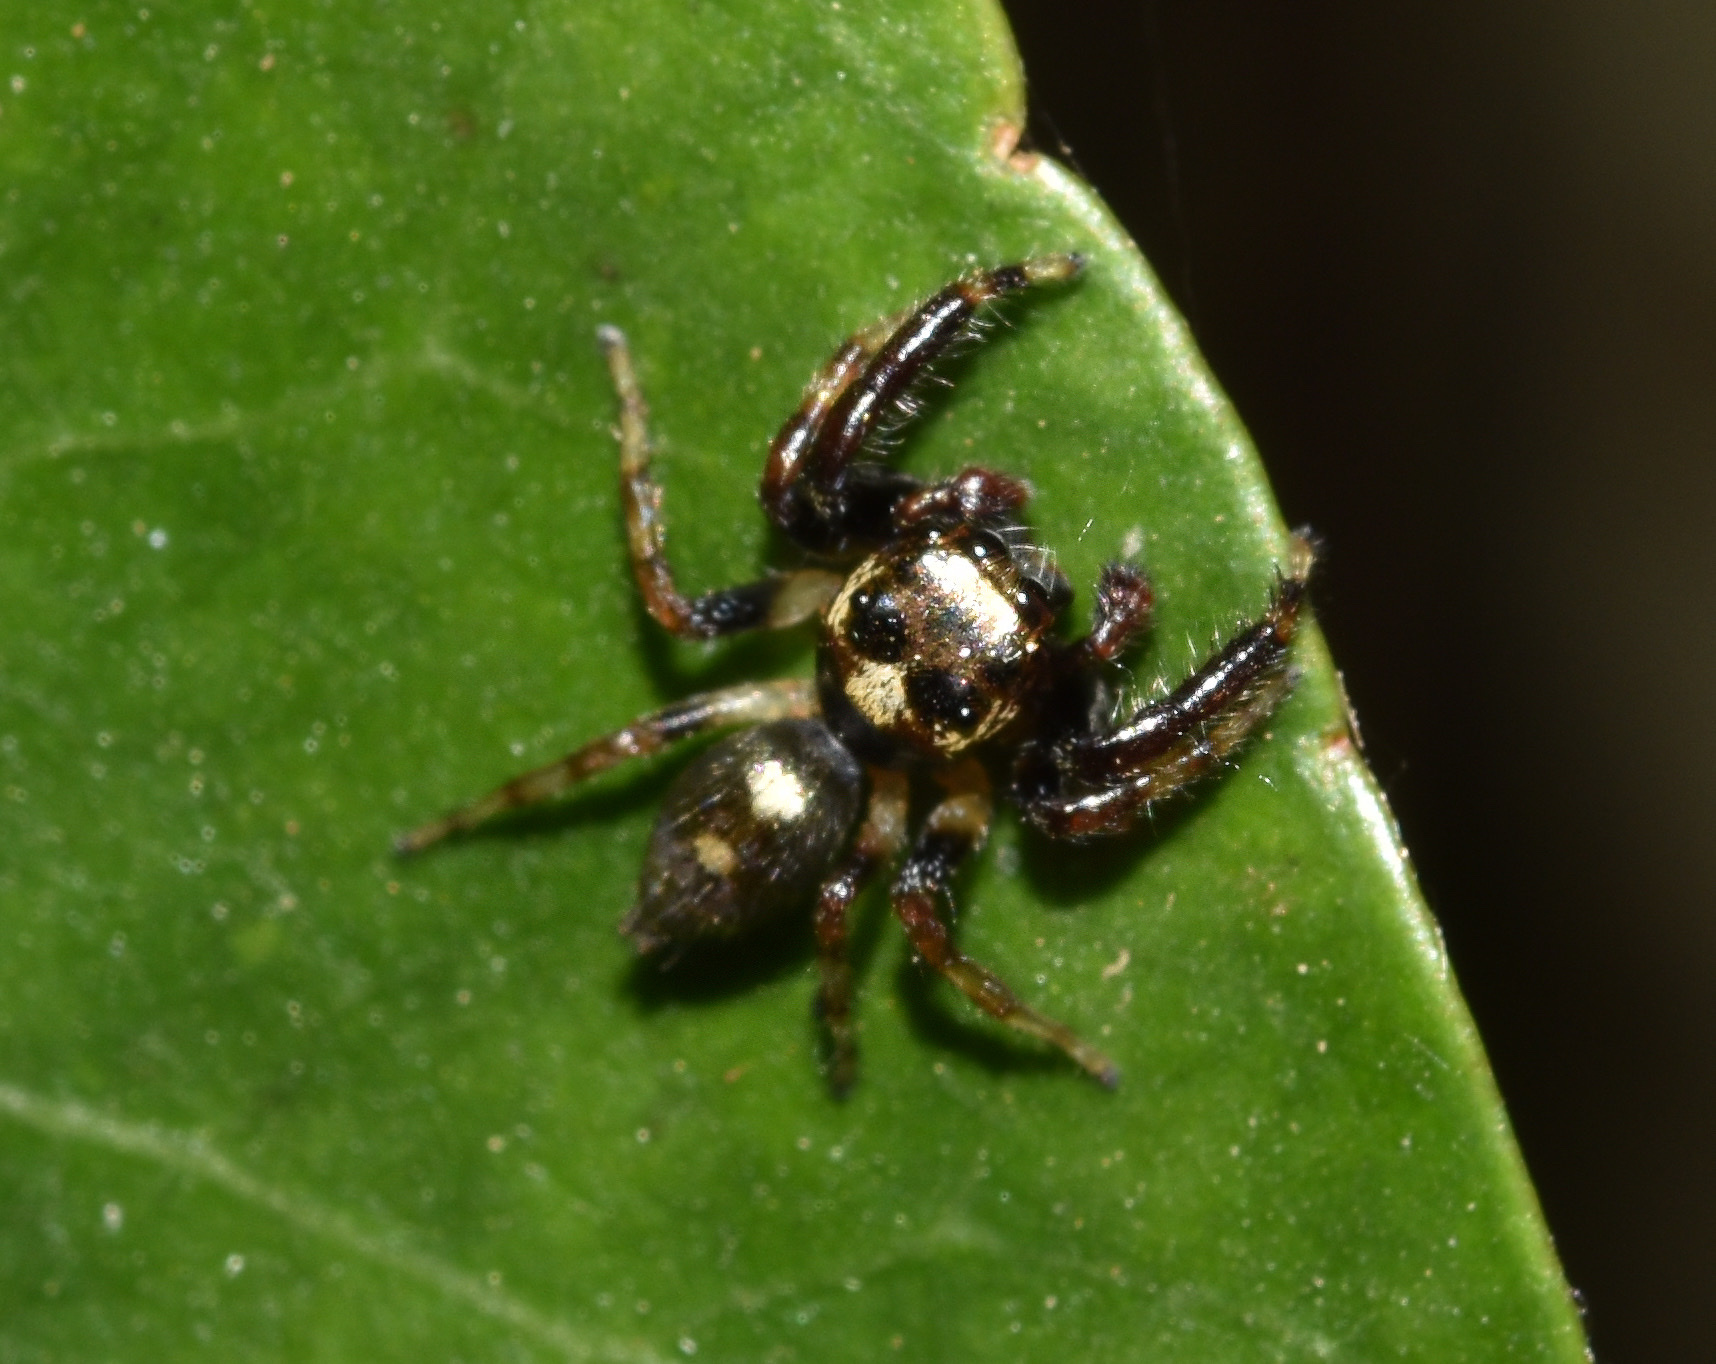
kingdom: Animalia
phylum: Arthropoda
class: Arachnida
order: Araneae
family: Salticidae
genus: Thyene
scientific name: Thyene natalii
